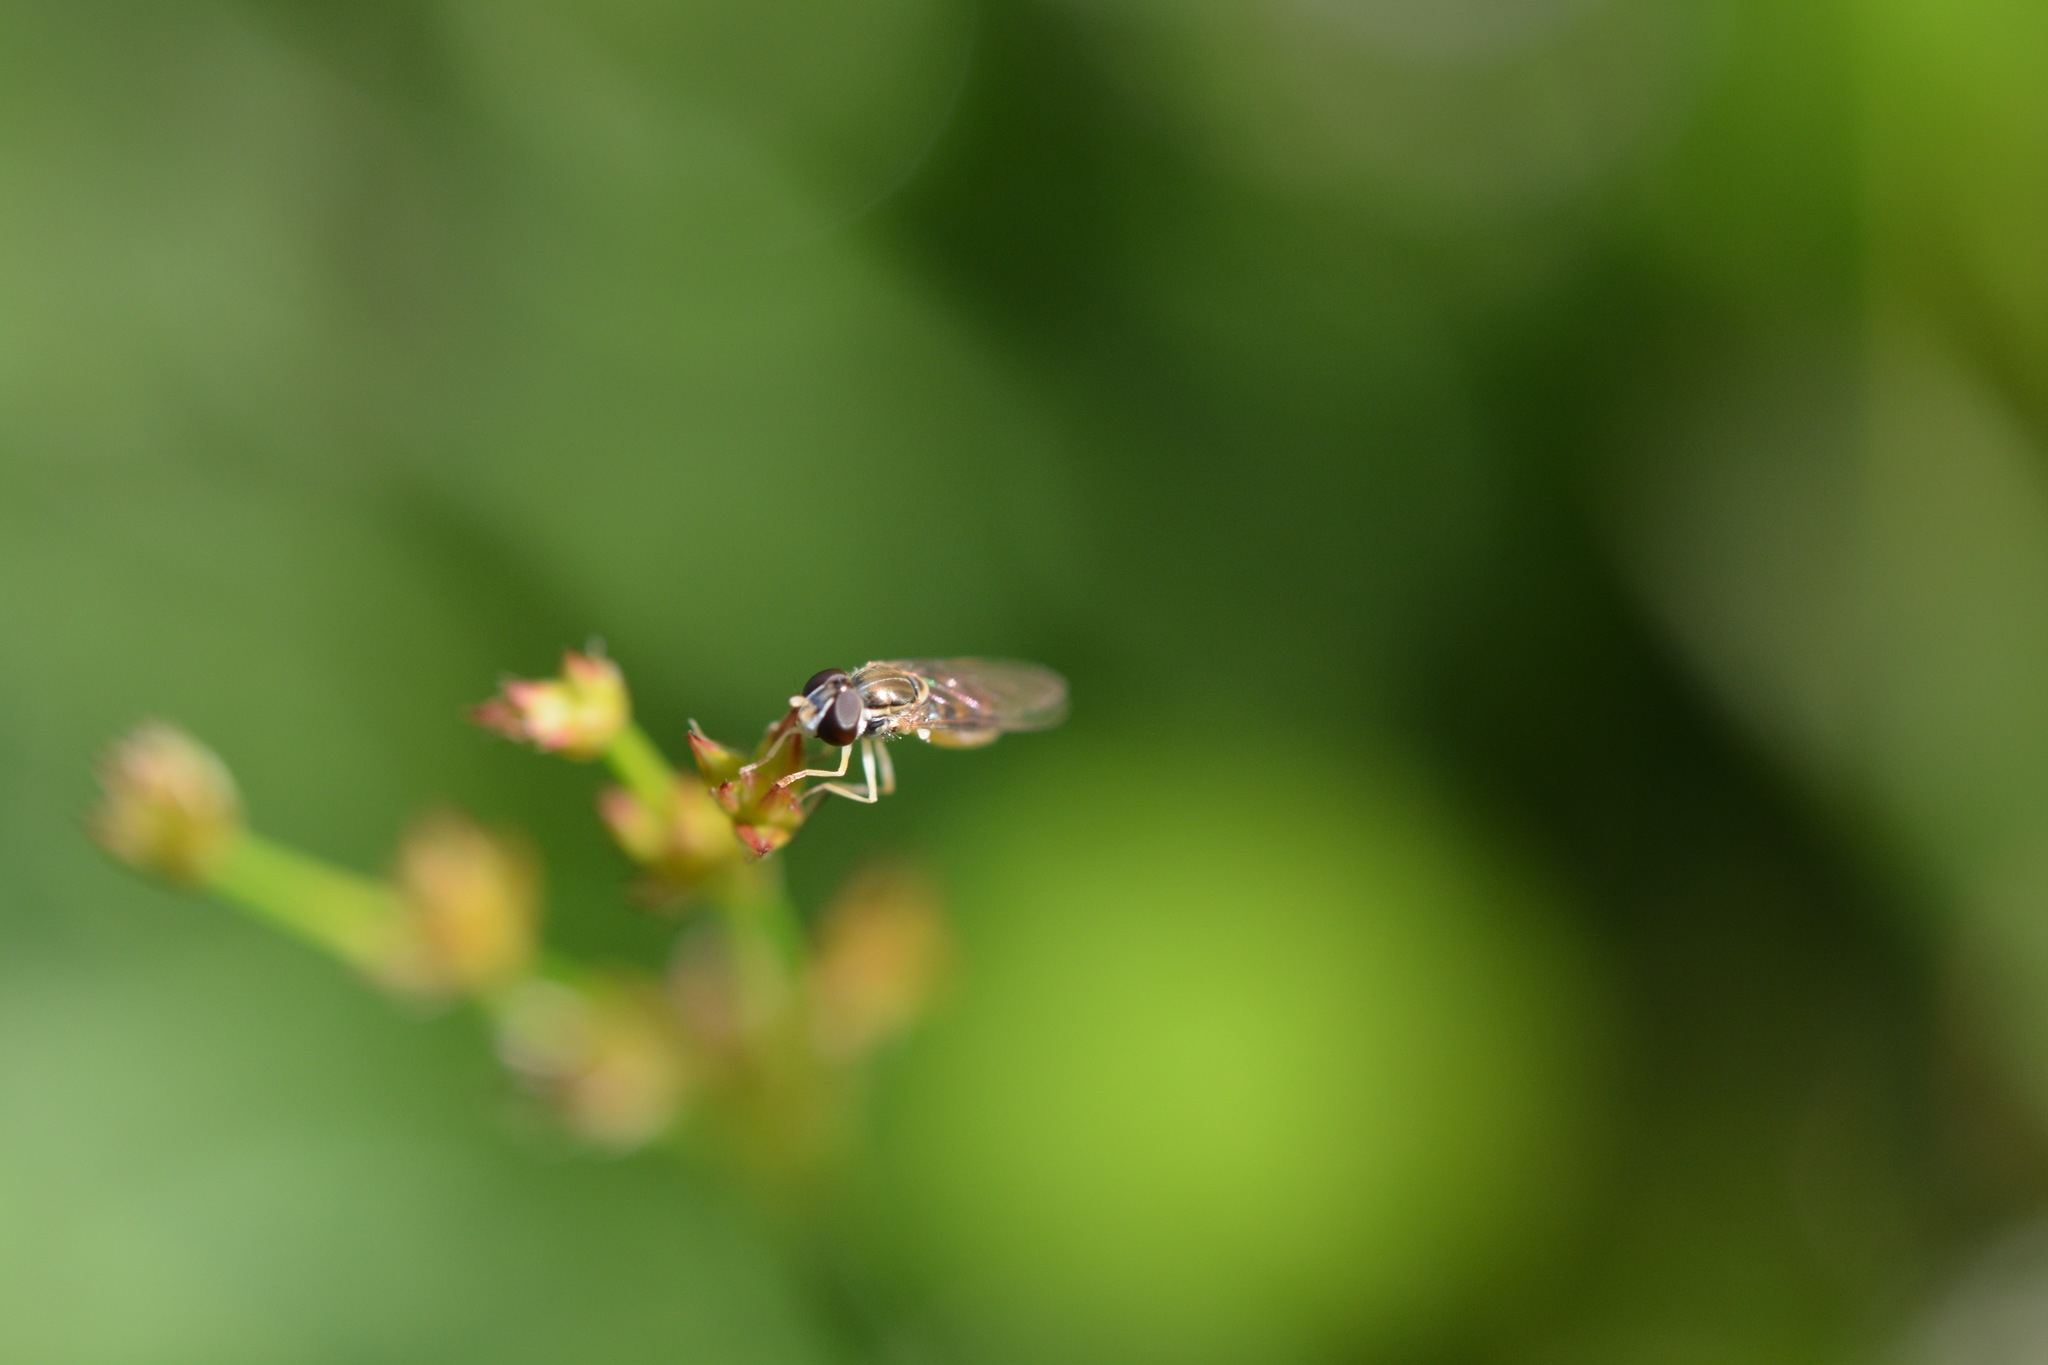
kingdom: Animalia
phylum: Arthropoda
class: Insecta
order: Diptera
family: Syrphidae
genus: Toxomerus
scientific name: Toxomerus marginatus
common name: Syrphid fly
